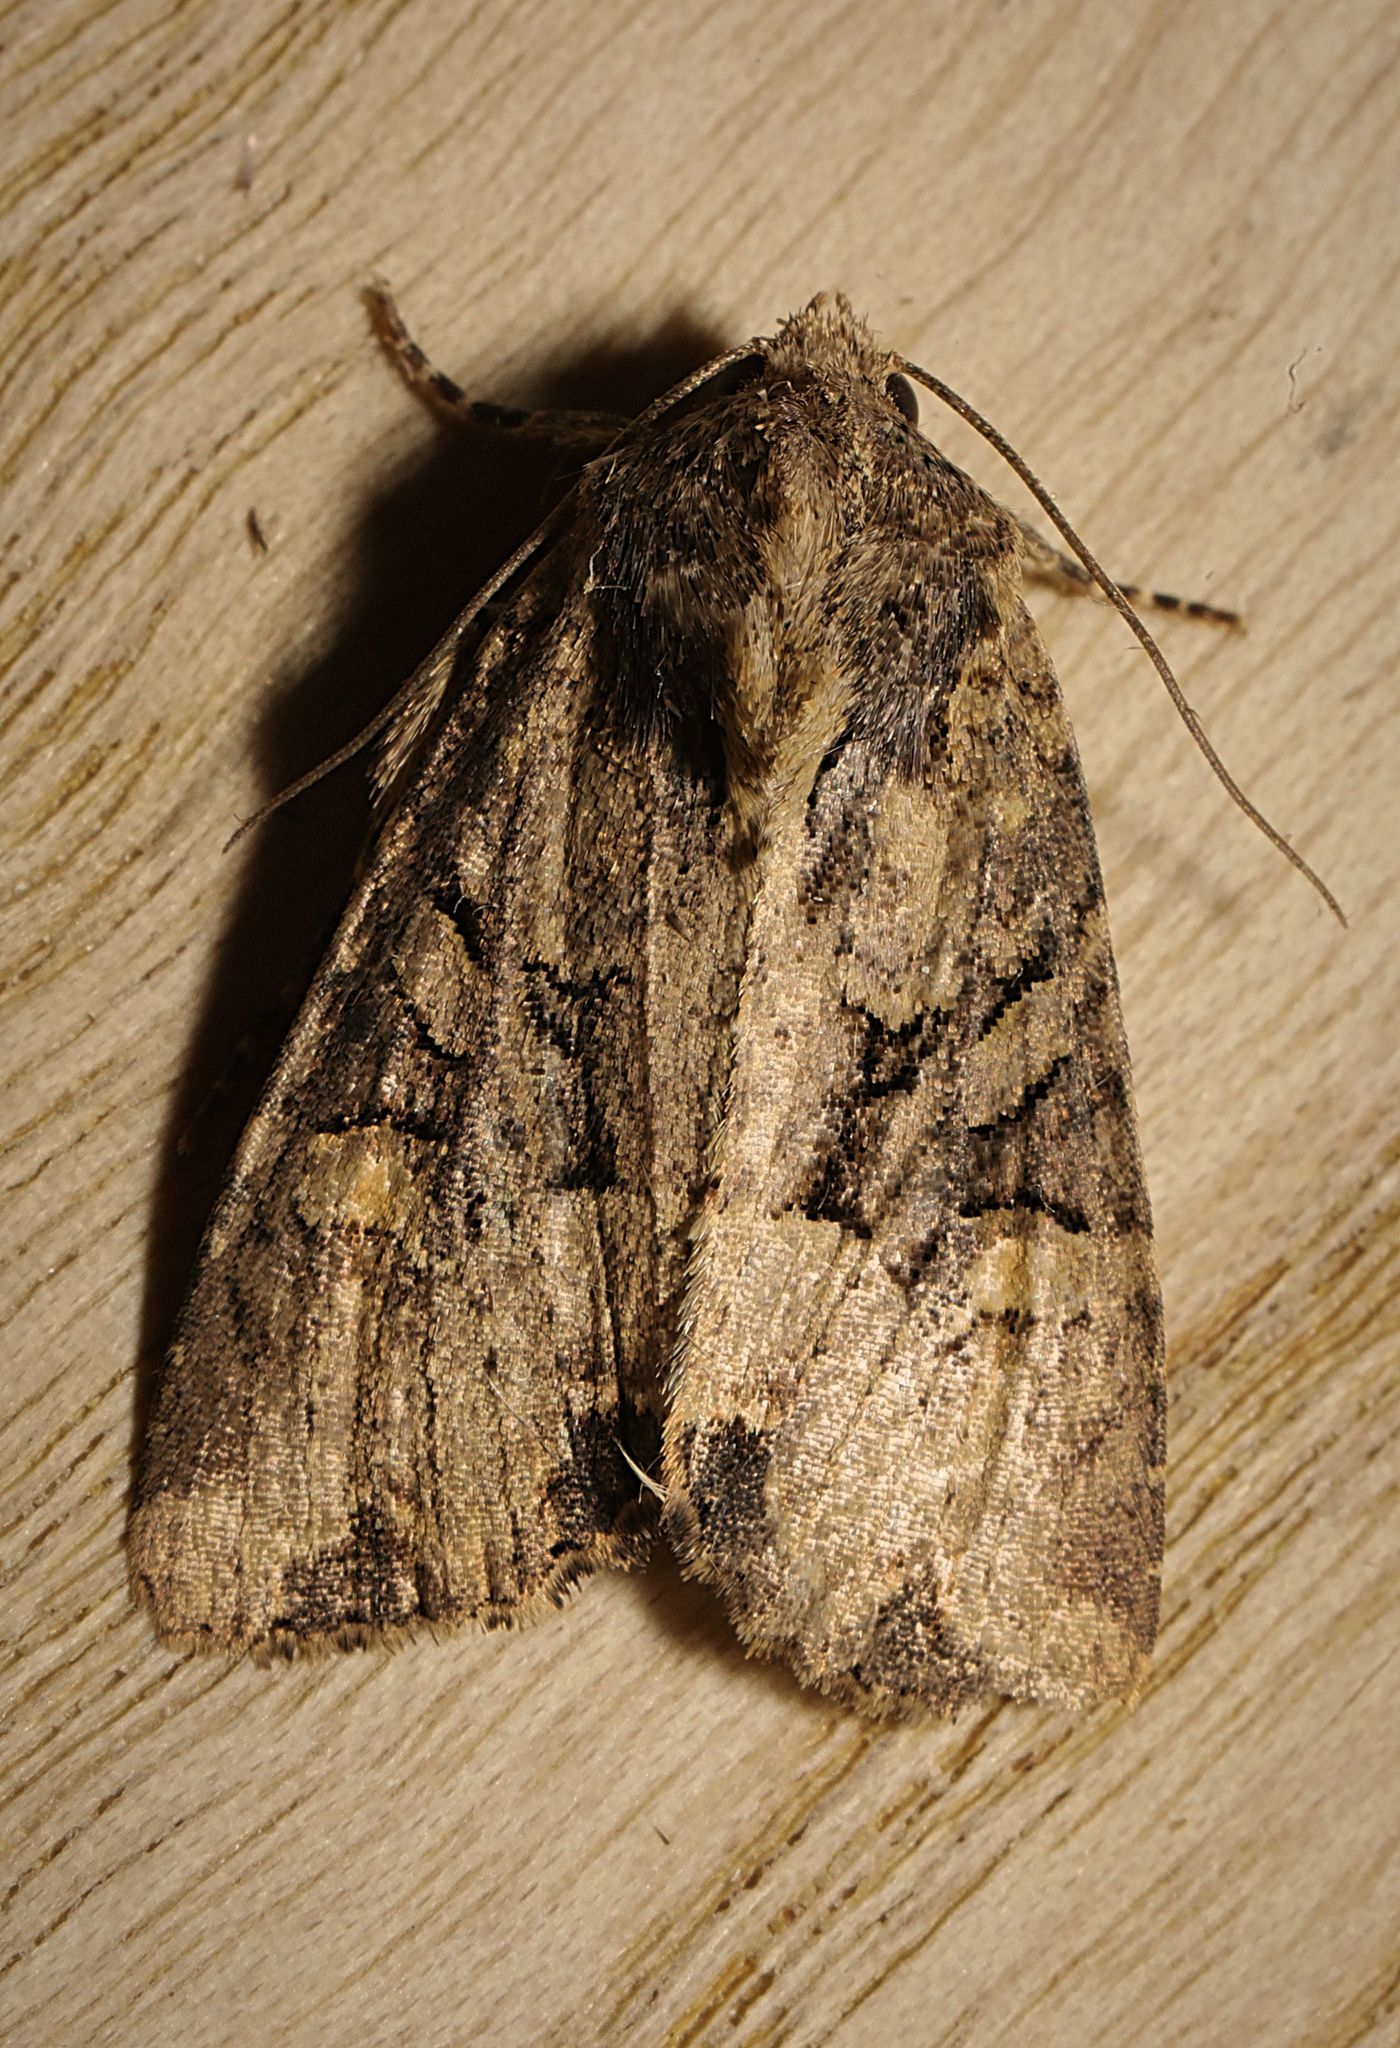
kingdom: Animalia
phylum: Arthropoda
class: Insecta
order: Lepidoptera
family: Noctuidae
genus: Mesapamea
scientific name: Mesapamea
